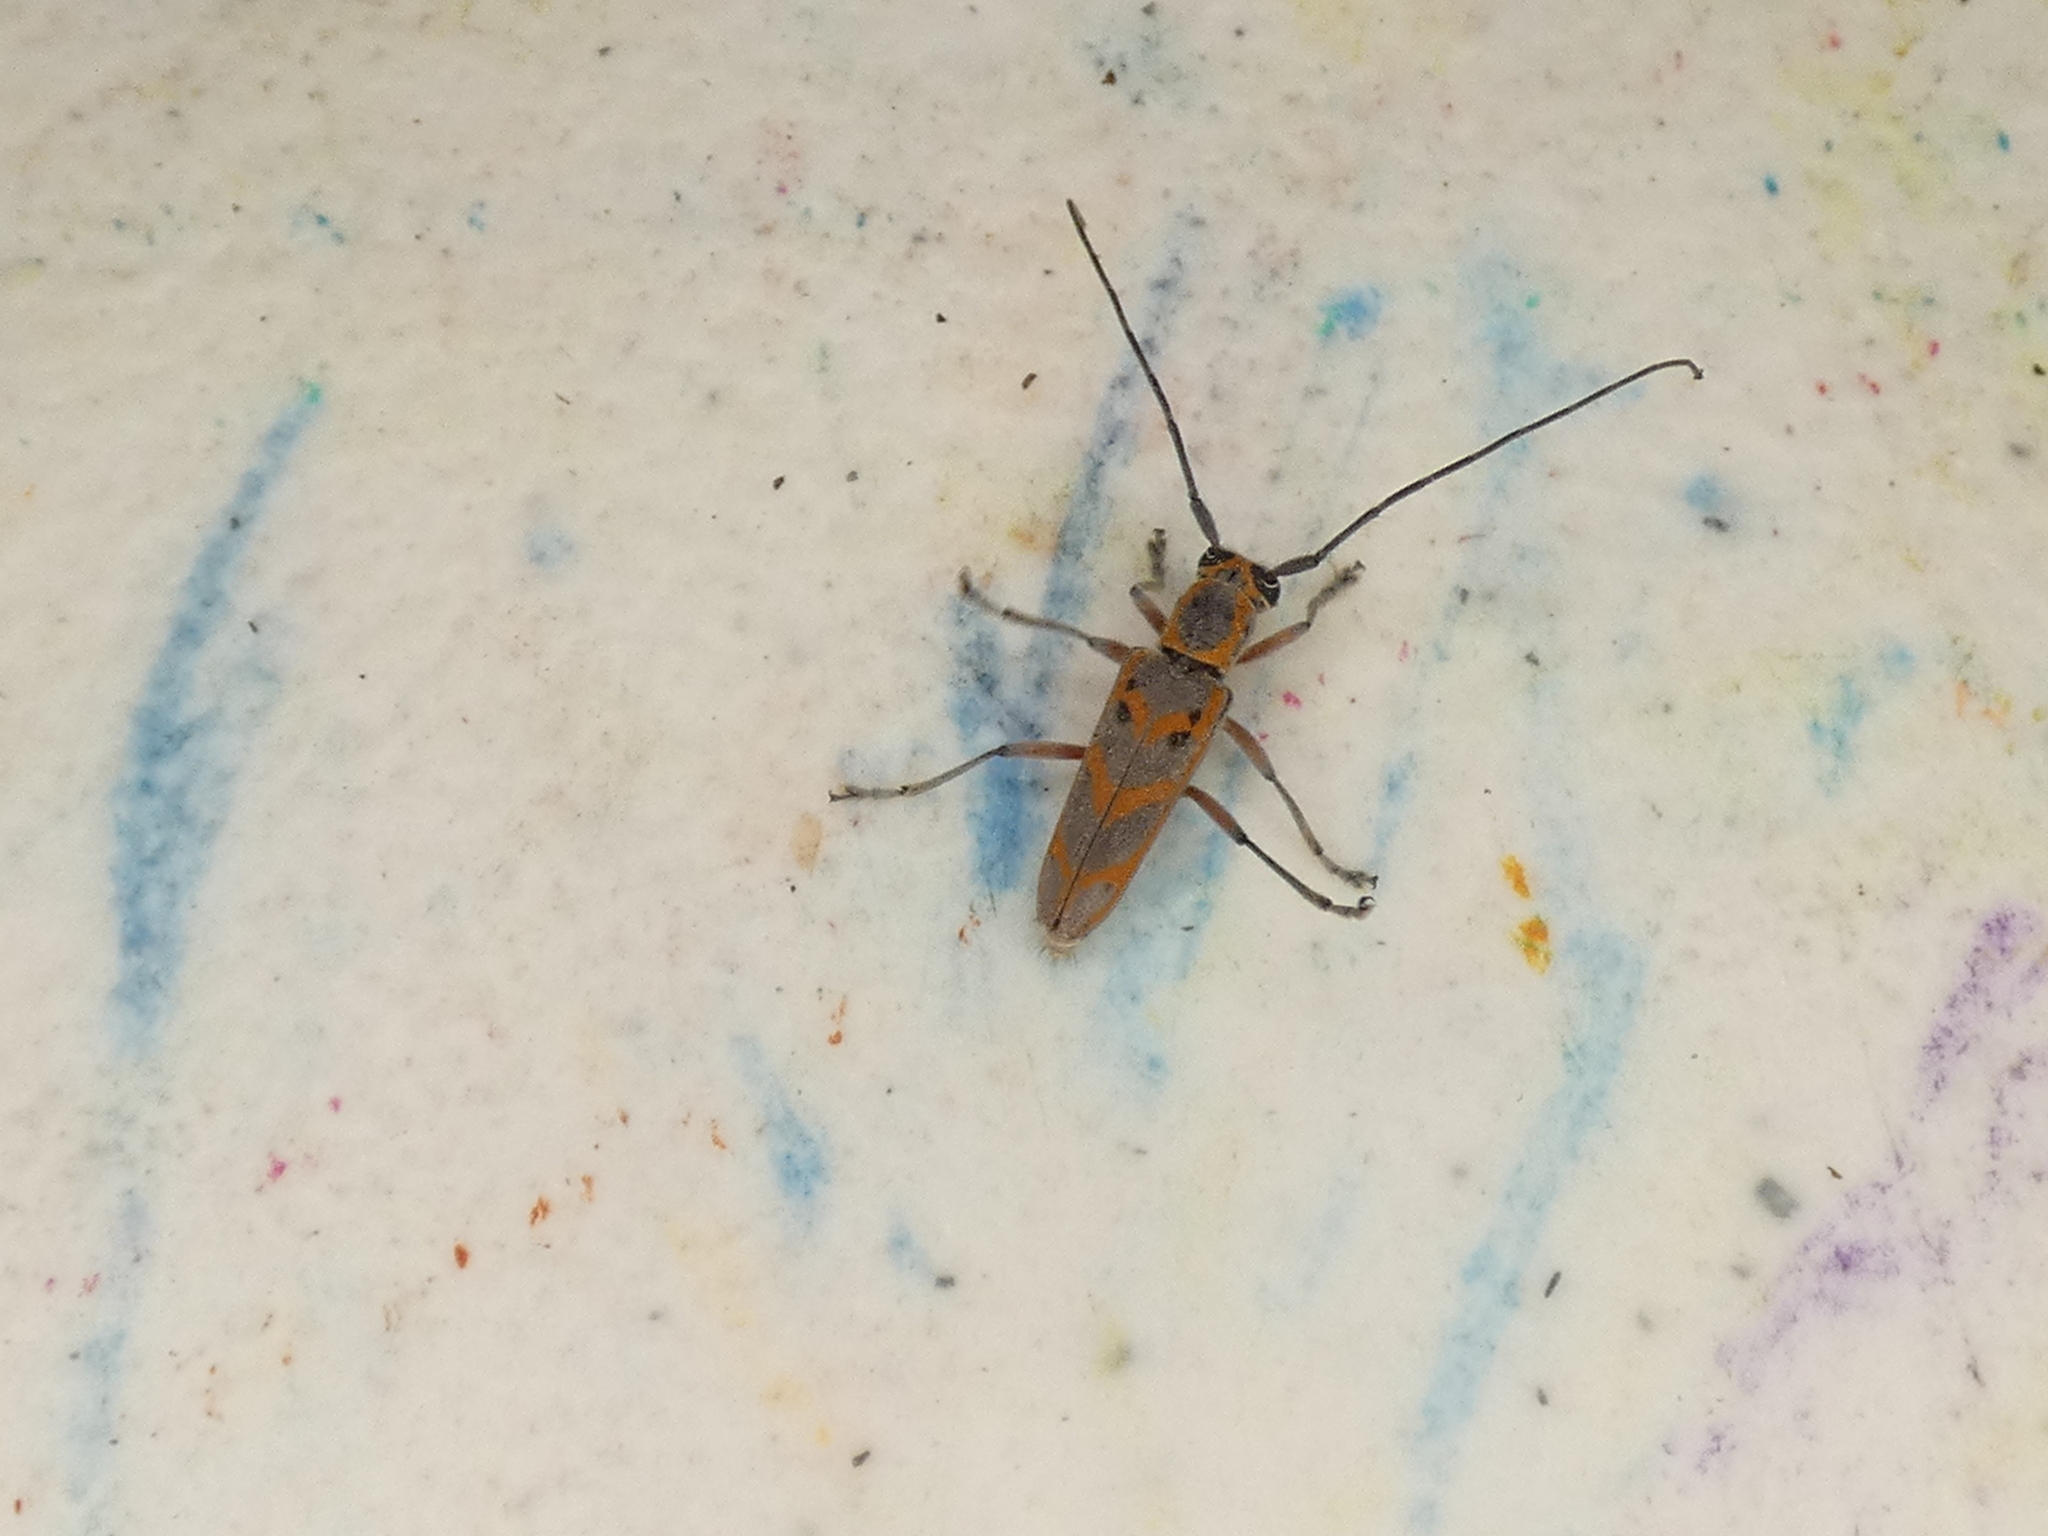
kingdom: Animalia
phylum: Arthropoda
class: Insecta
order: Coleoptera
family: Cerambycidae
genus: Saperda
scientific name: Saperda tridentata
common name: Elm borer
